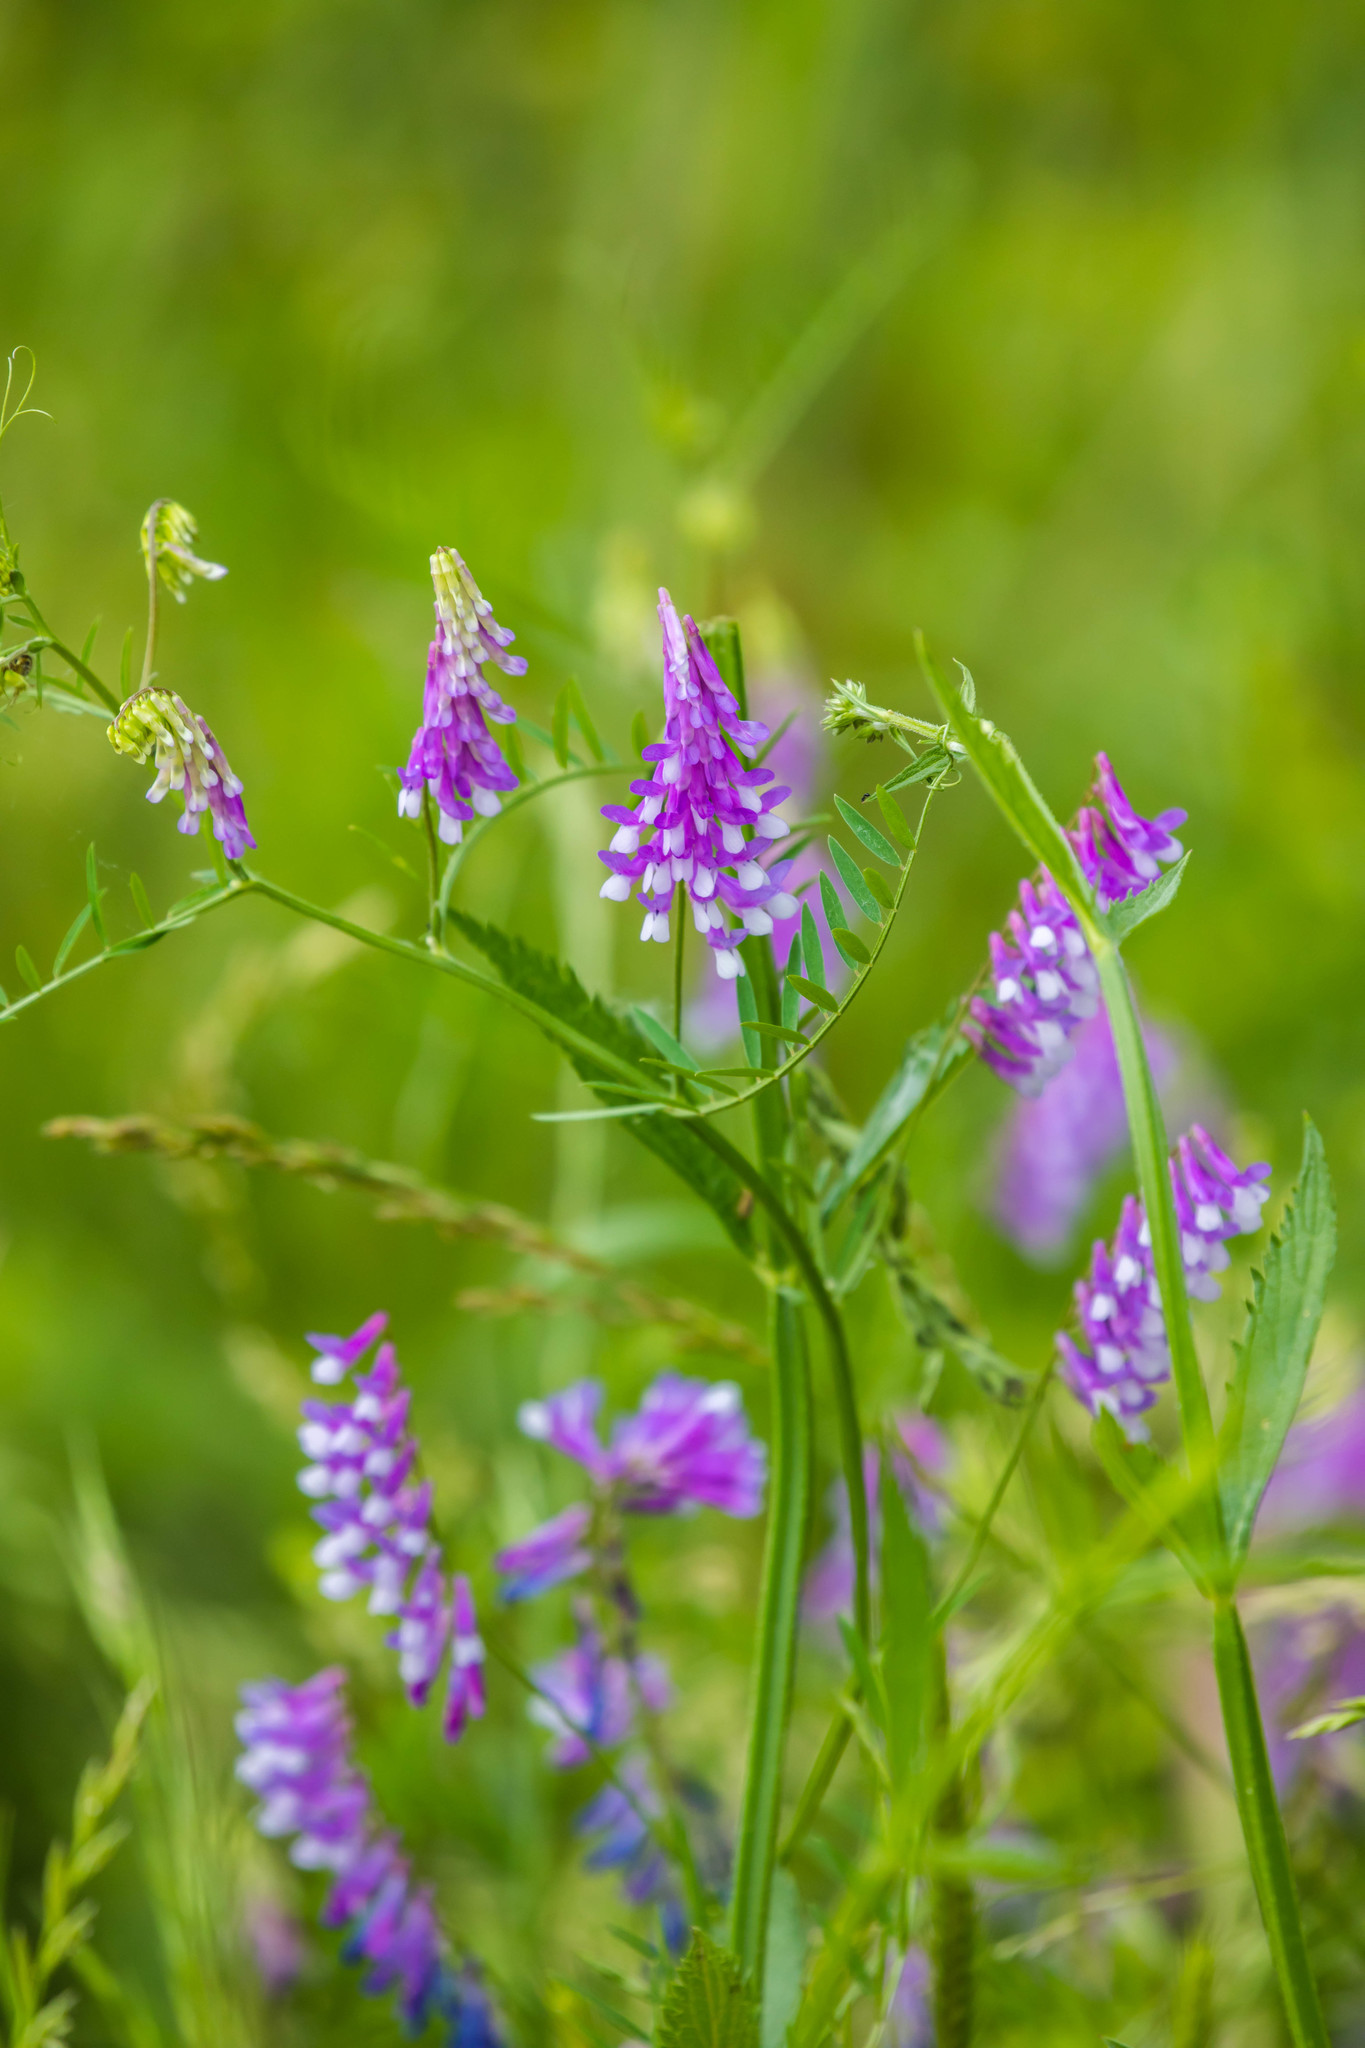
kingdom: Plantae
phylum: Tracheophyta
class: Magnoliopsida
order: Fabales
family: Fabaceae
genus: Vicia
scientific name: Vicia villosa
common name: Fodder vetch
